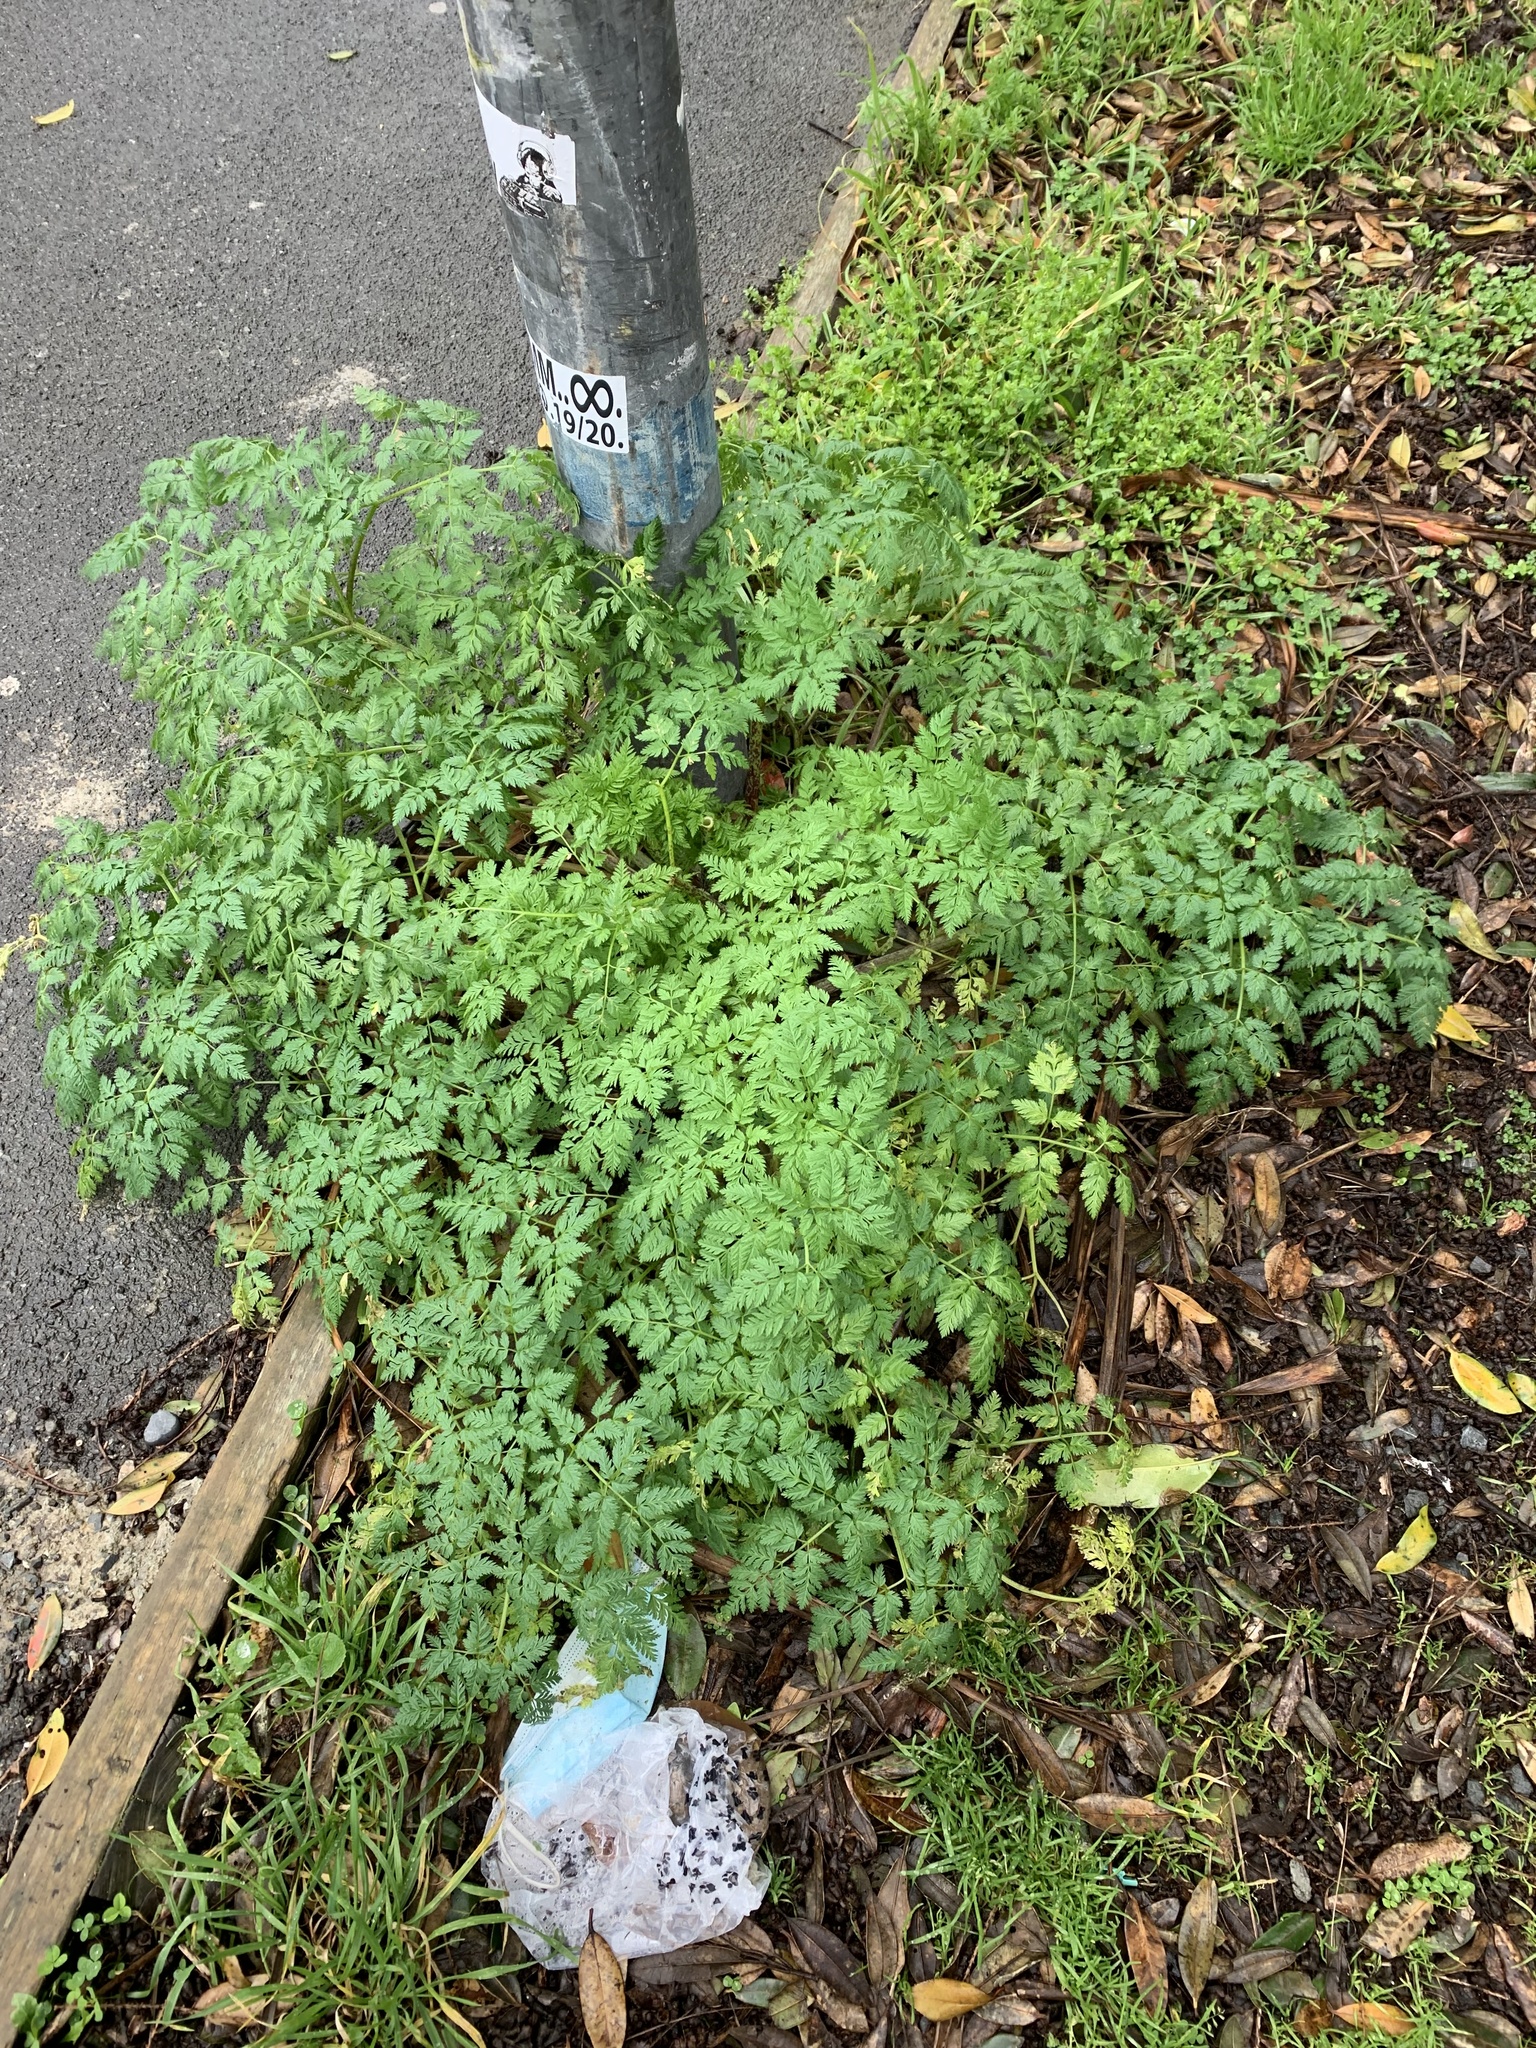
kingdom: Plantae
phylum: Tracheophyta
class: Magnoliopsida
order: Apiales
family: Apiaceae
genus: Conium
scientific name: Conium maculatum
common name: Hemlock
